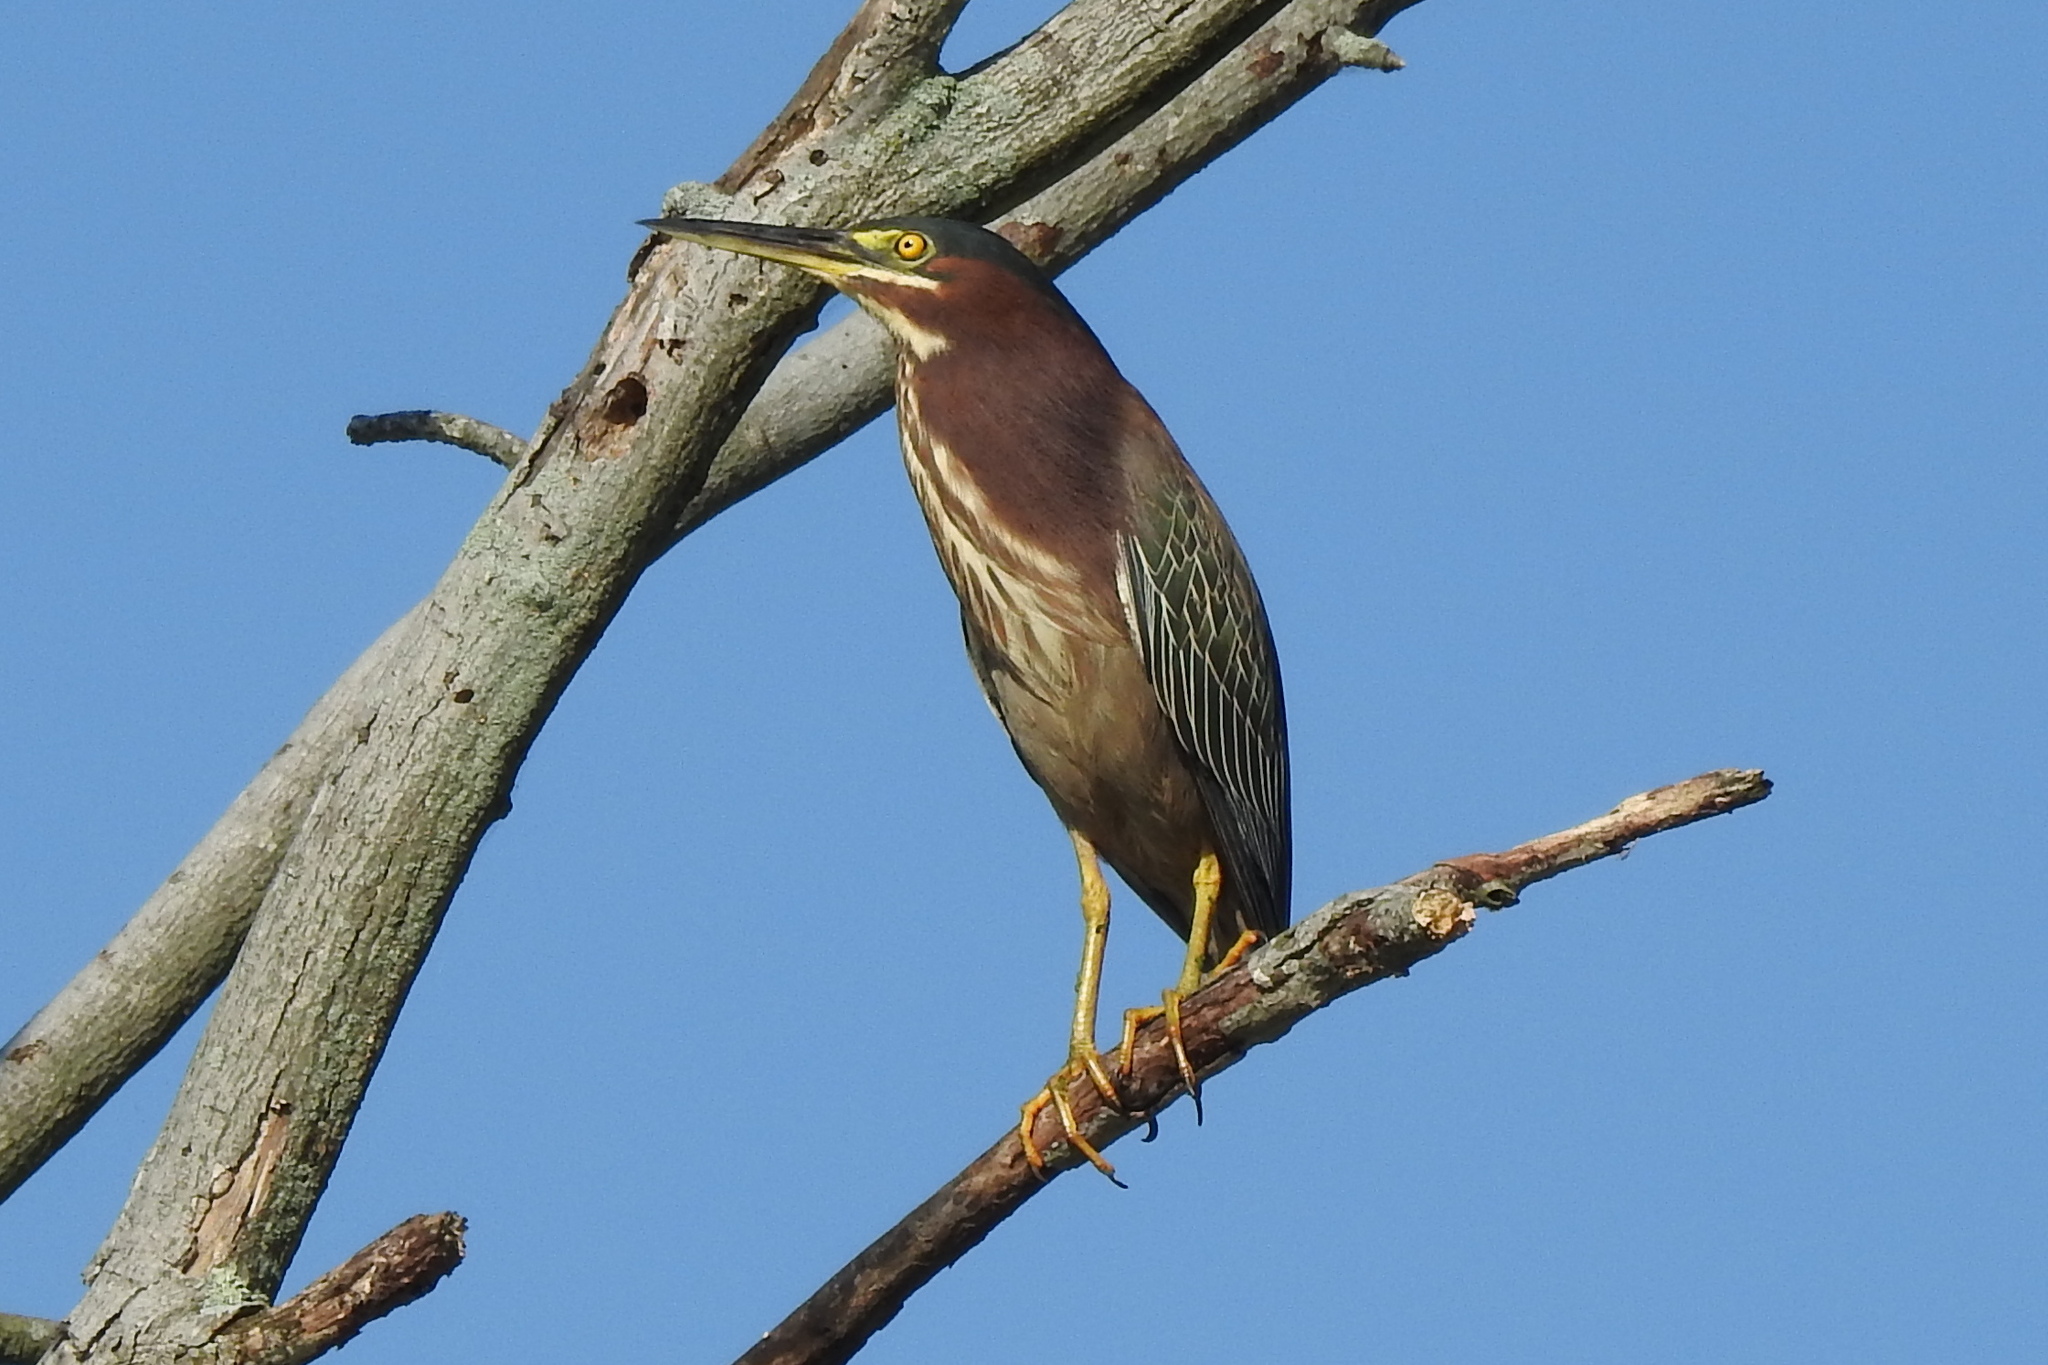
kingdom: Animalia
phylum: Chordata
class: Aves
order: Pelecaniformes
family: Ardeidae
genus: Butorides
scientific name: Butorides virescens
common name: Green heron
